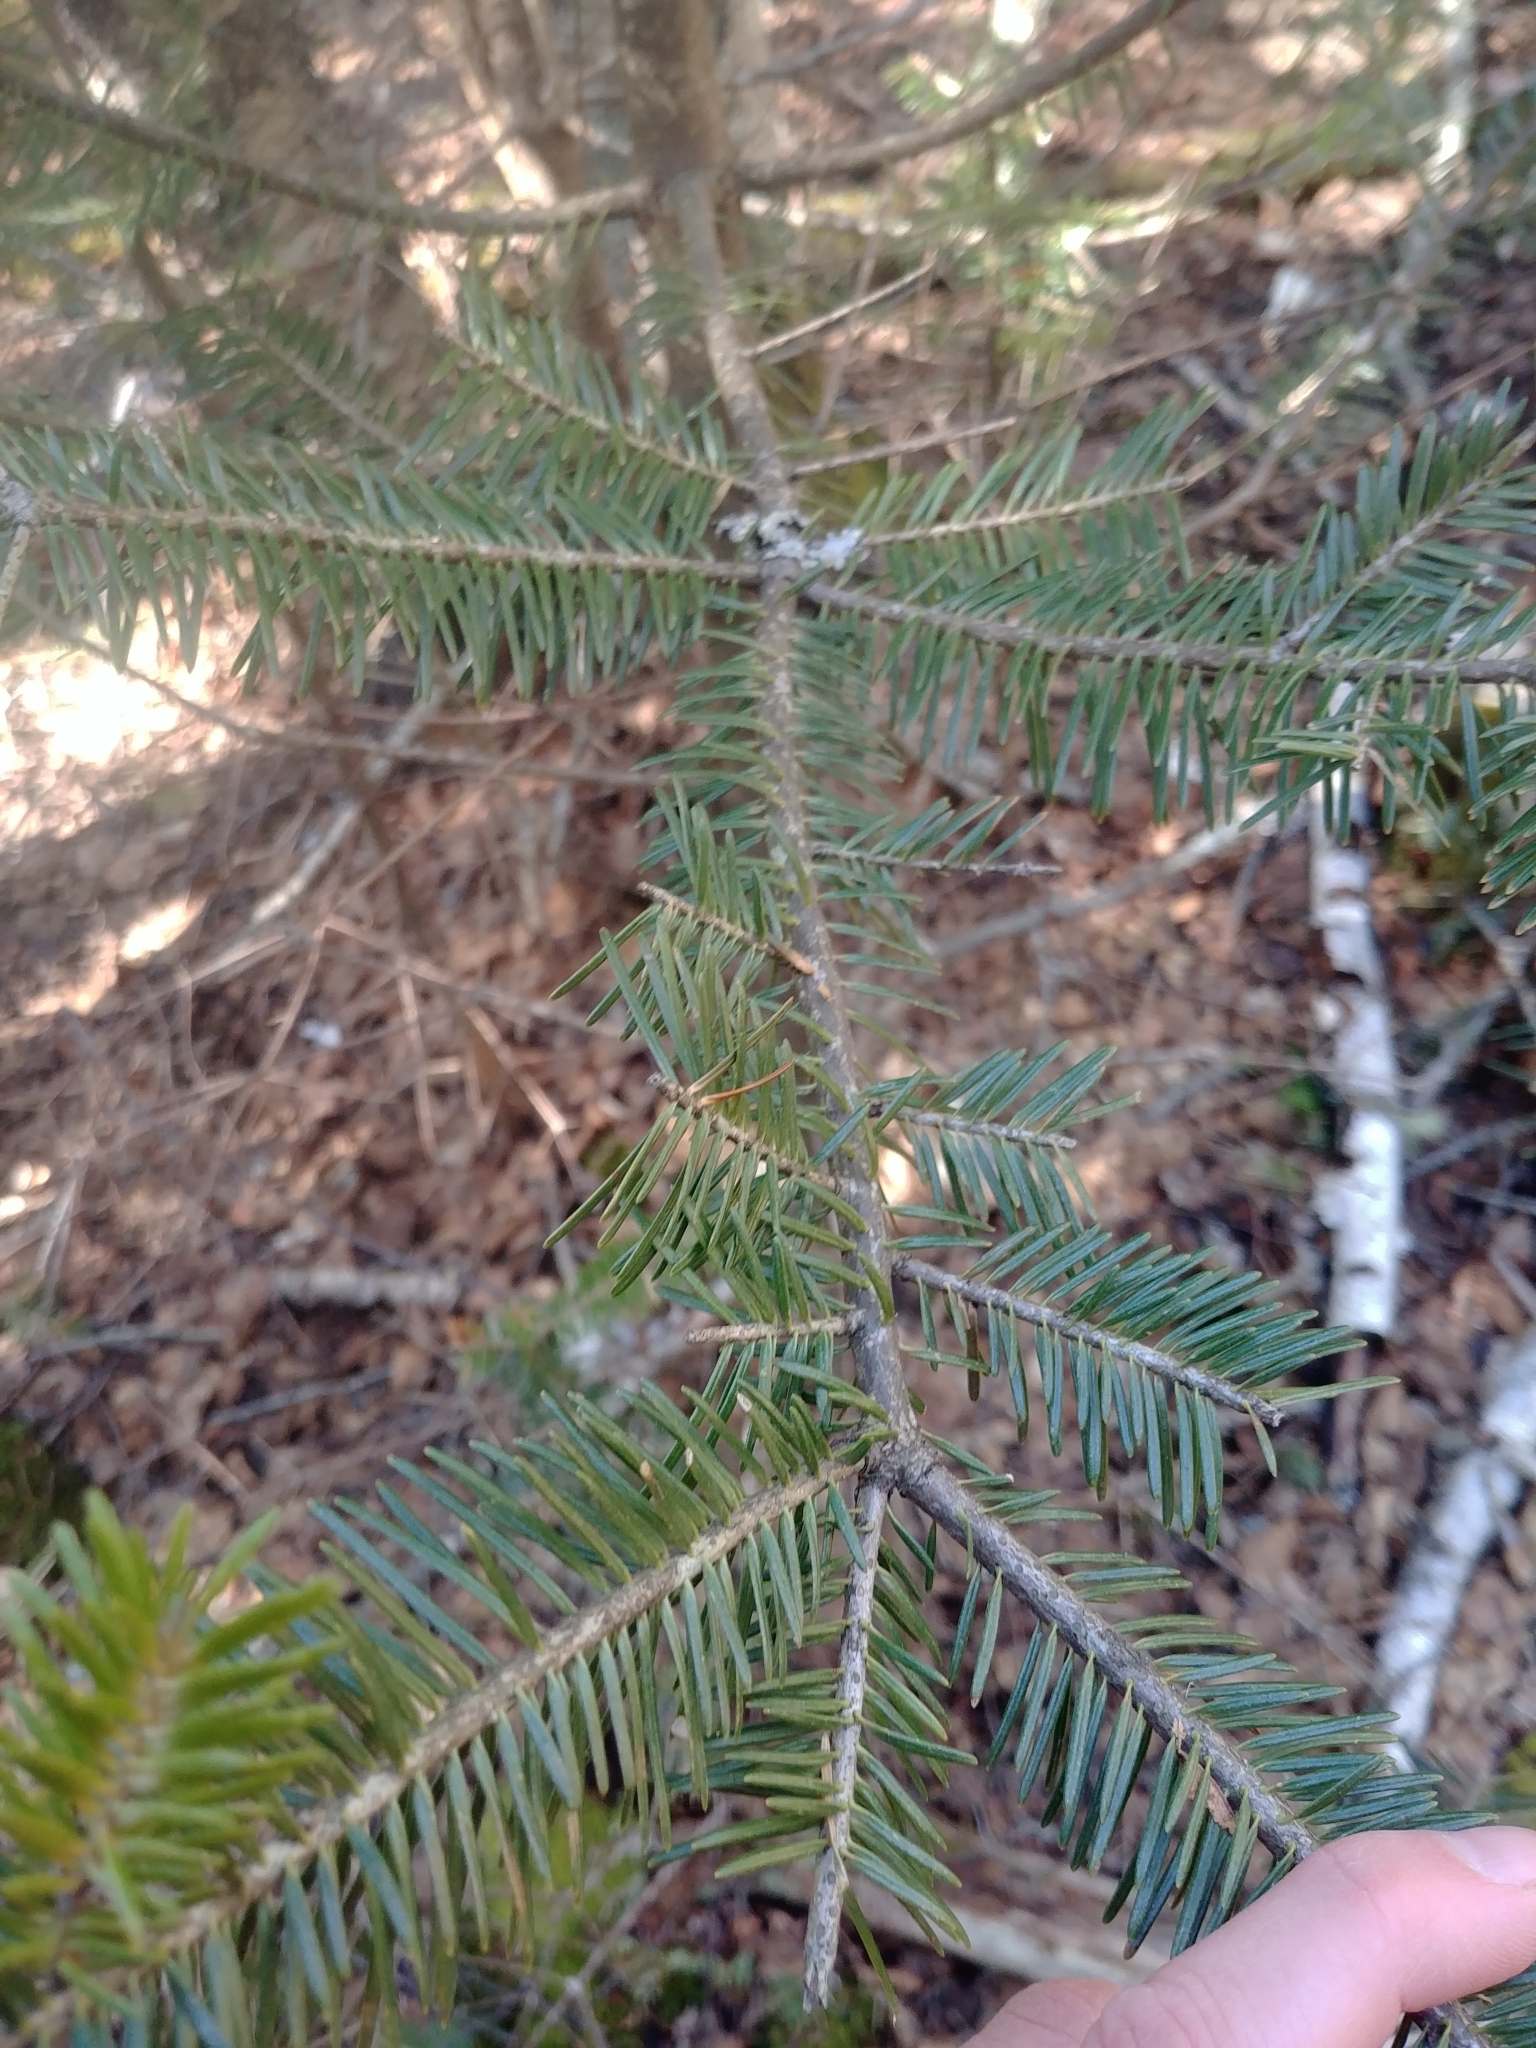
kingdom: Plantae
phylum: Tracheophyta
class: Pinopsida
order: Pinales
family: Pinaceae
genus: Abies
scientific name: Abies balsamea
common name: Balsam fir
